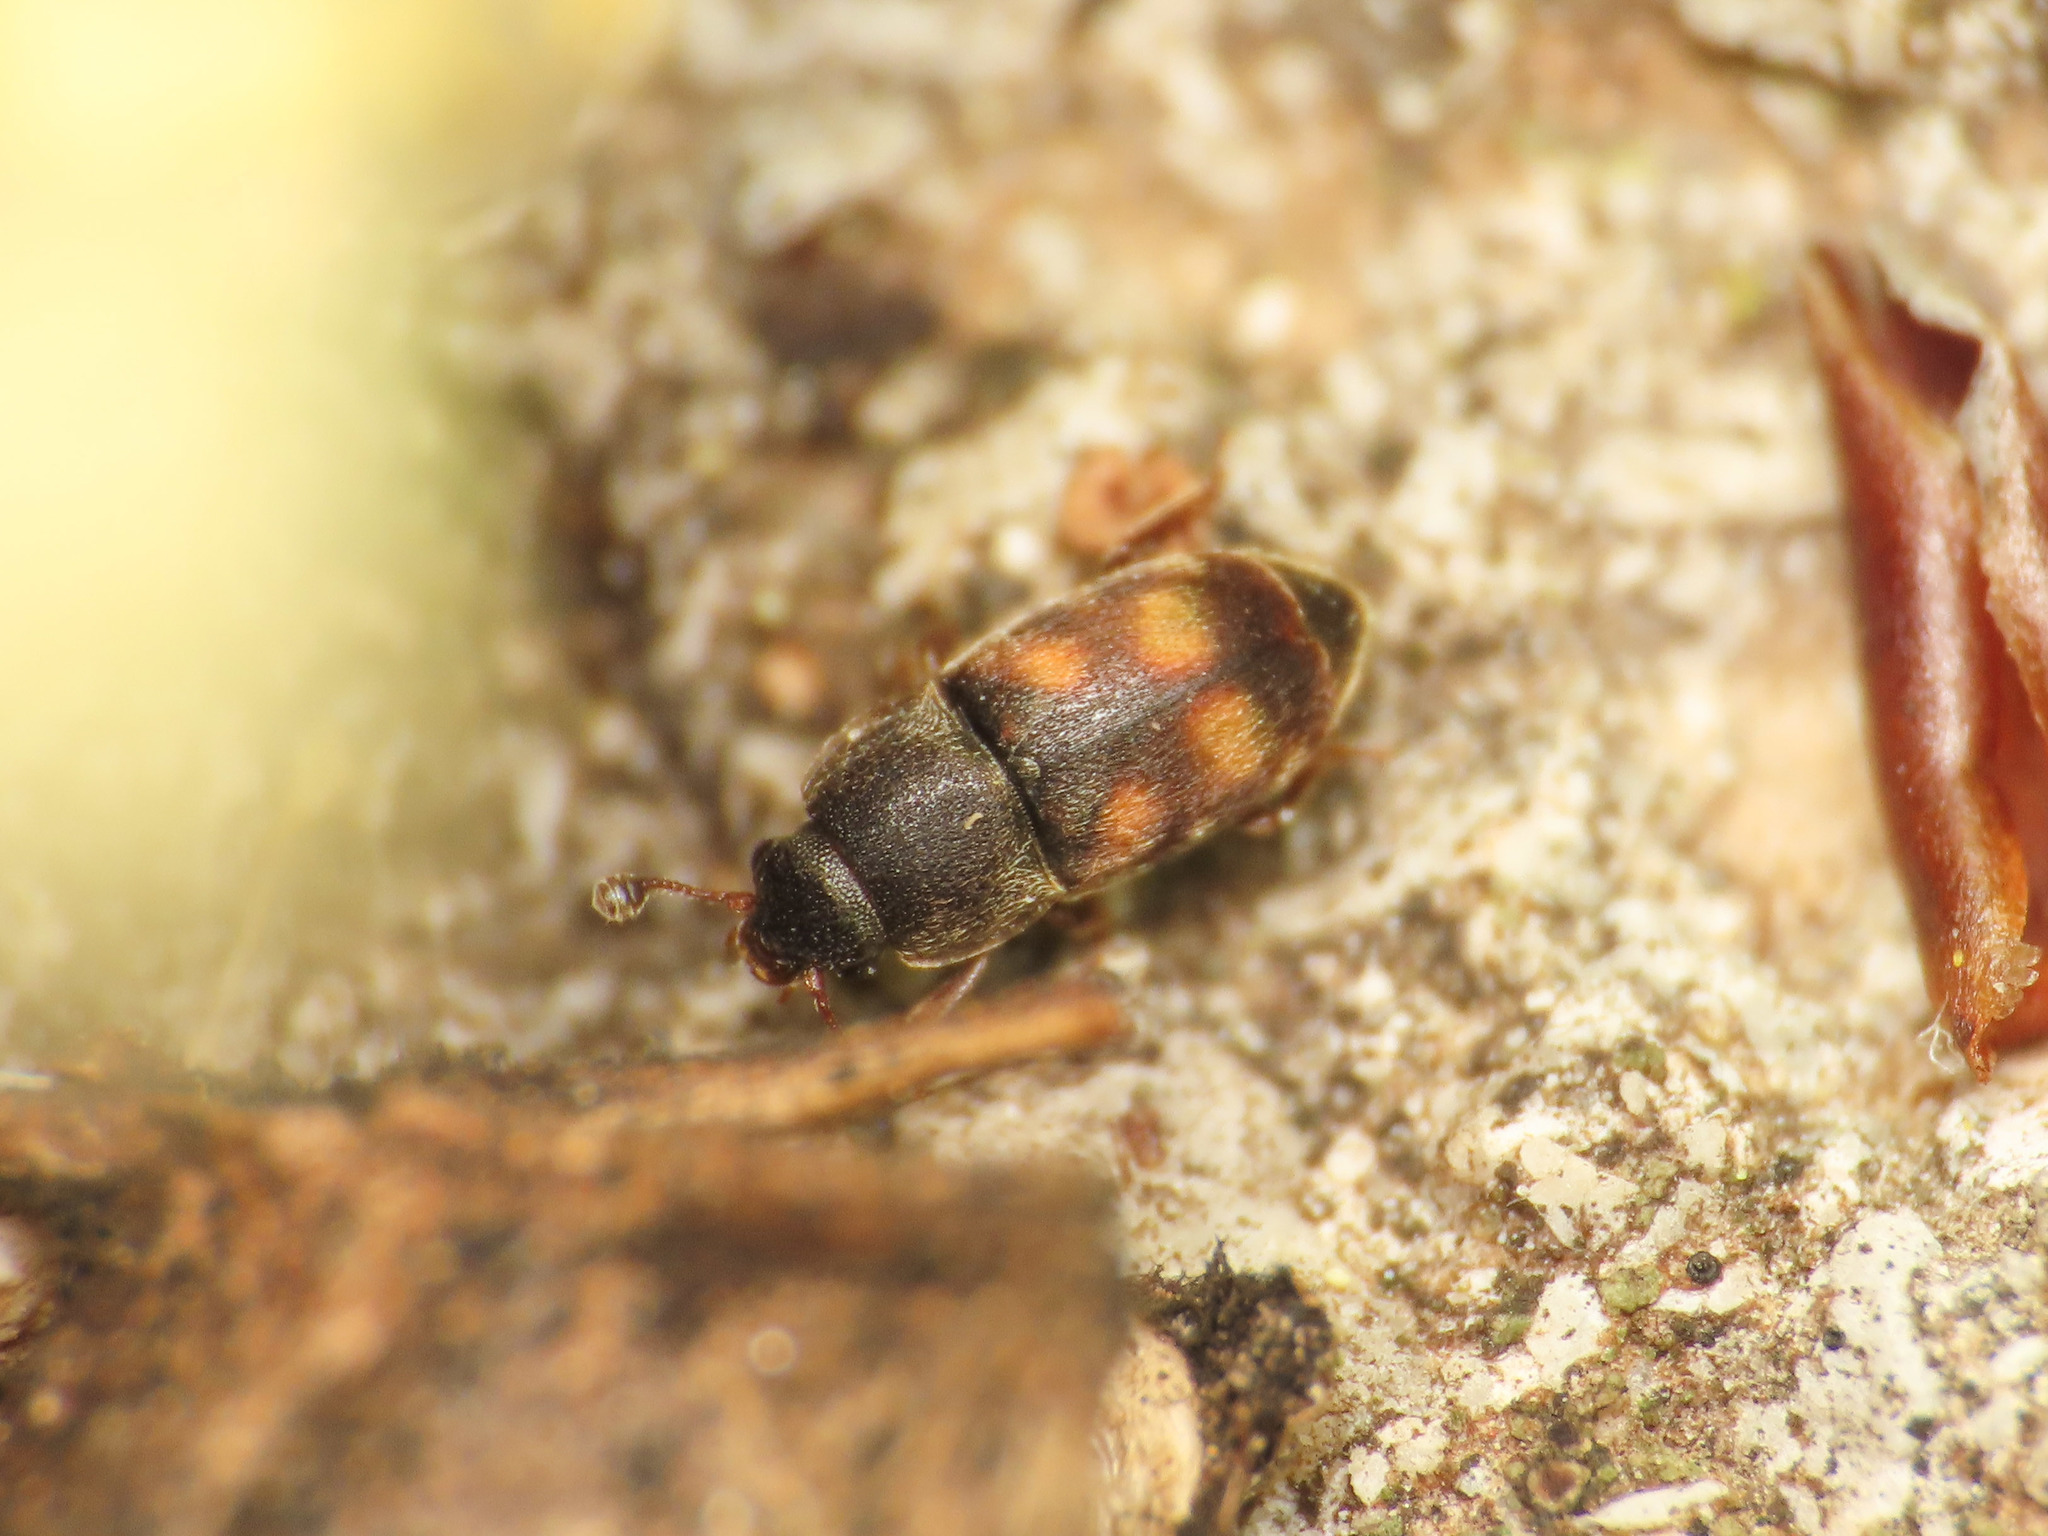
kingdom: Animalia
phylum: Arthropoda
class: Insecta
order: Coleoptera
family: Nitidulidae
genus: Nitidula
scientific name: Nitidula carnaria
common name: Sap beetle
